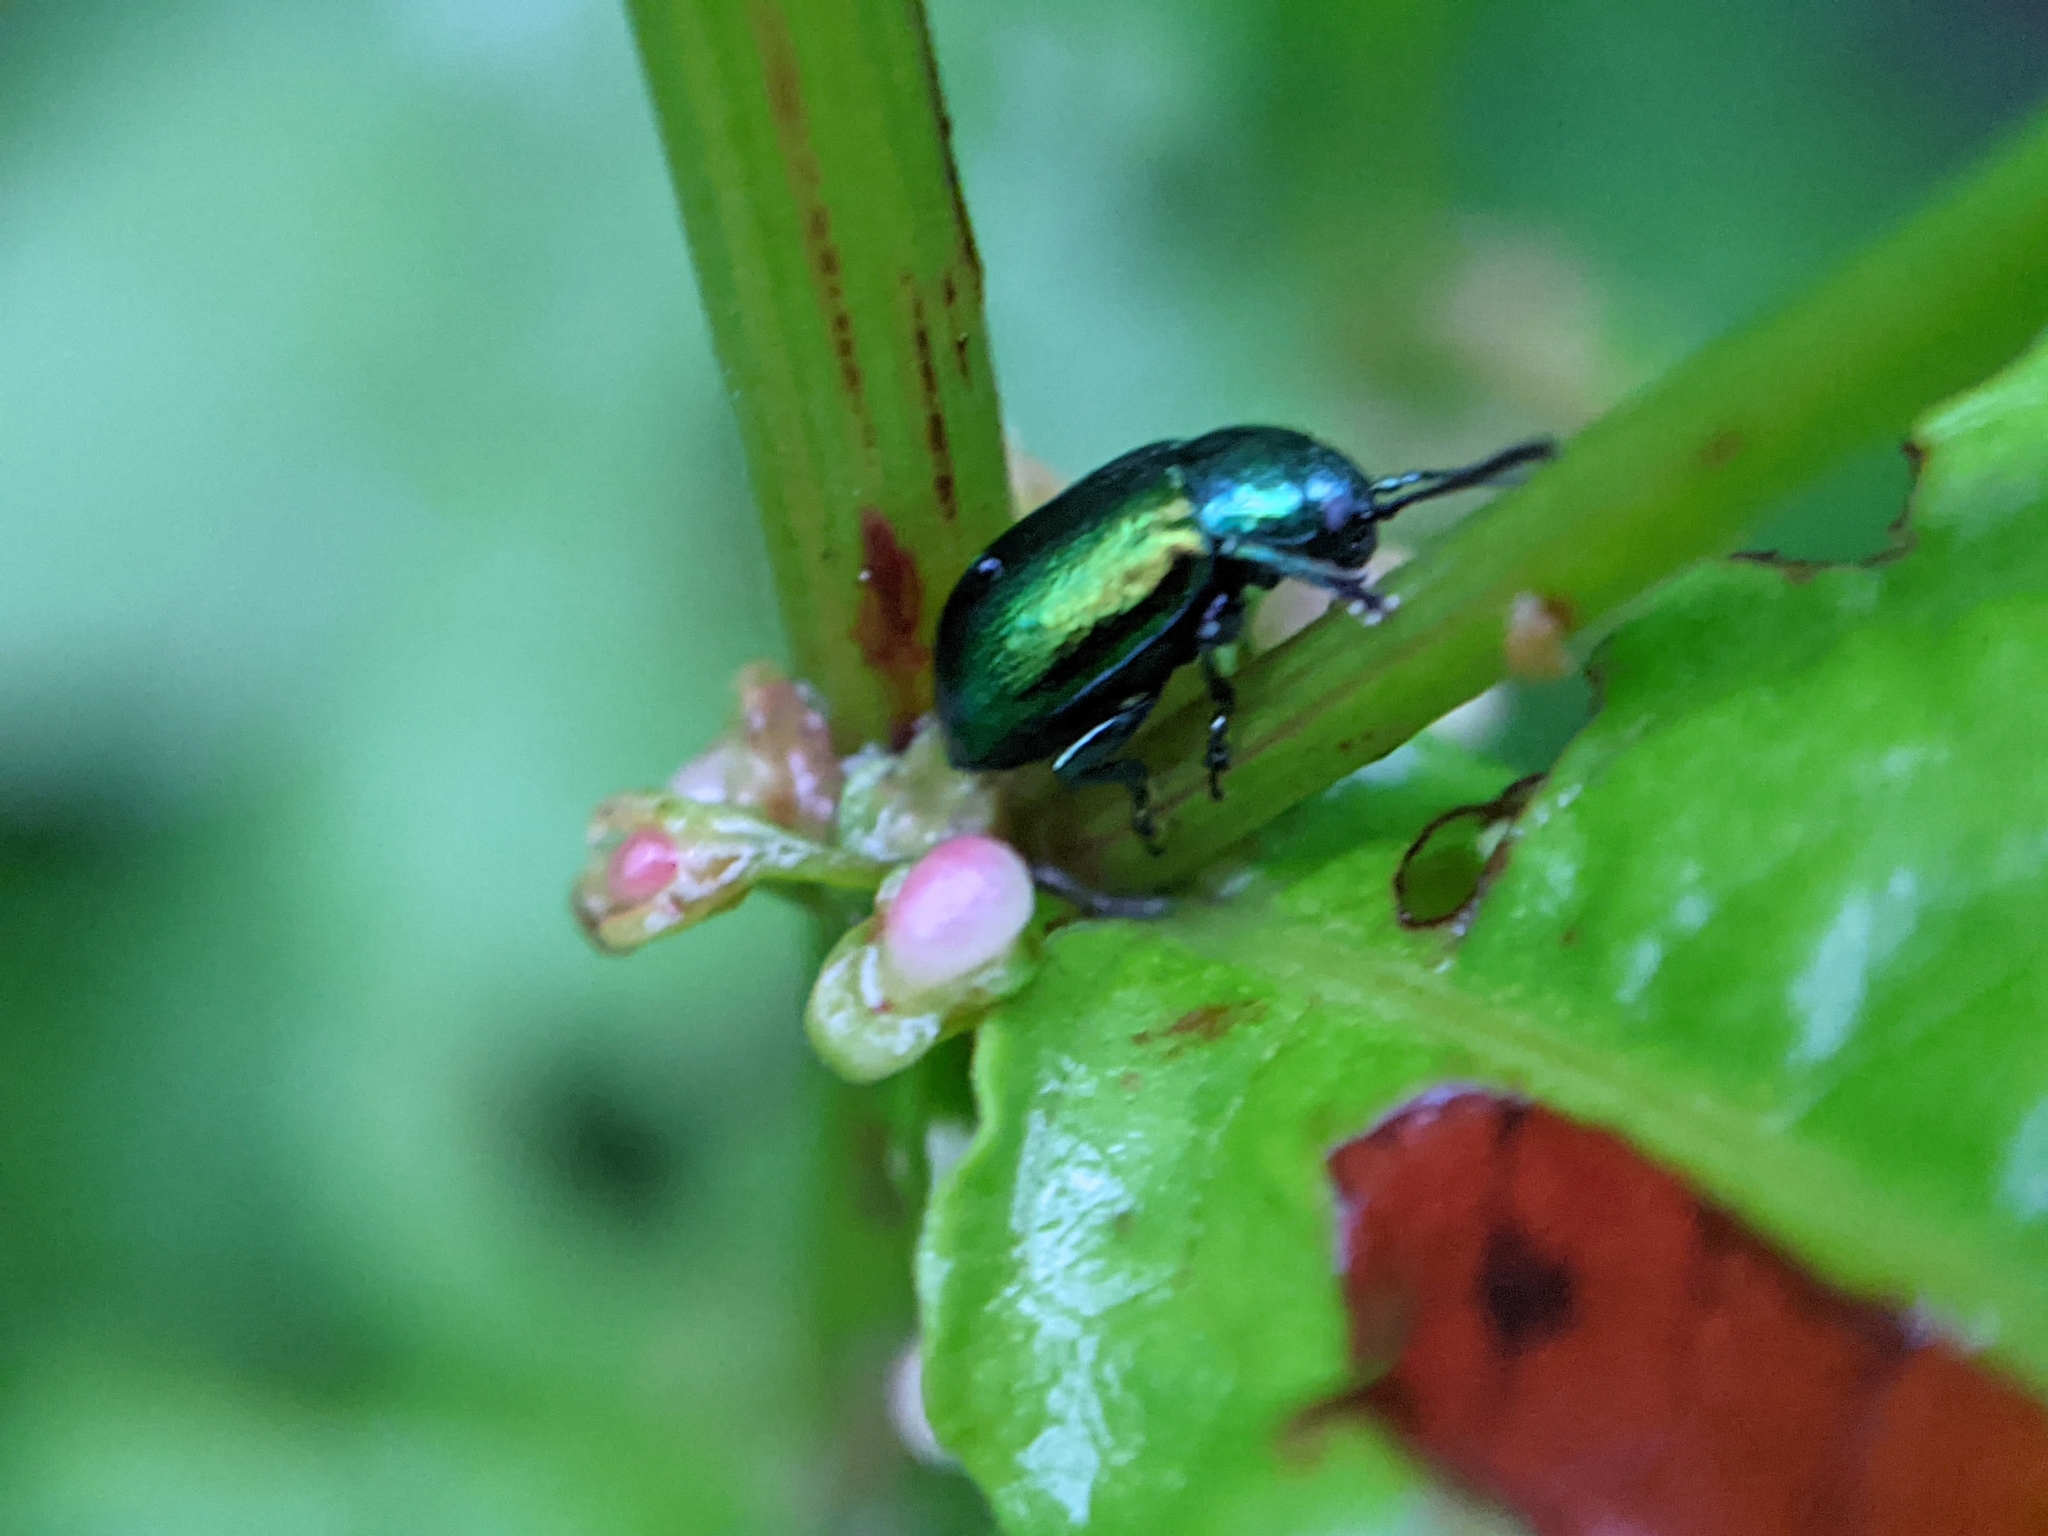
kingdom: Animalia
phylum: Arthropoda
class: Insecta
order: Coleoptera
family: Chrysomelidae
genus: Gastrophysa
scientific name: Gastrophysa viridula
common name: Green dock beetle
